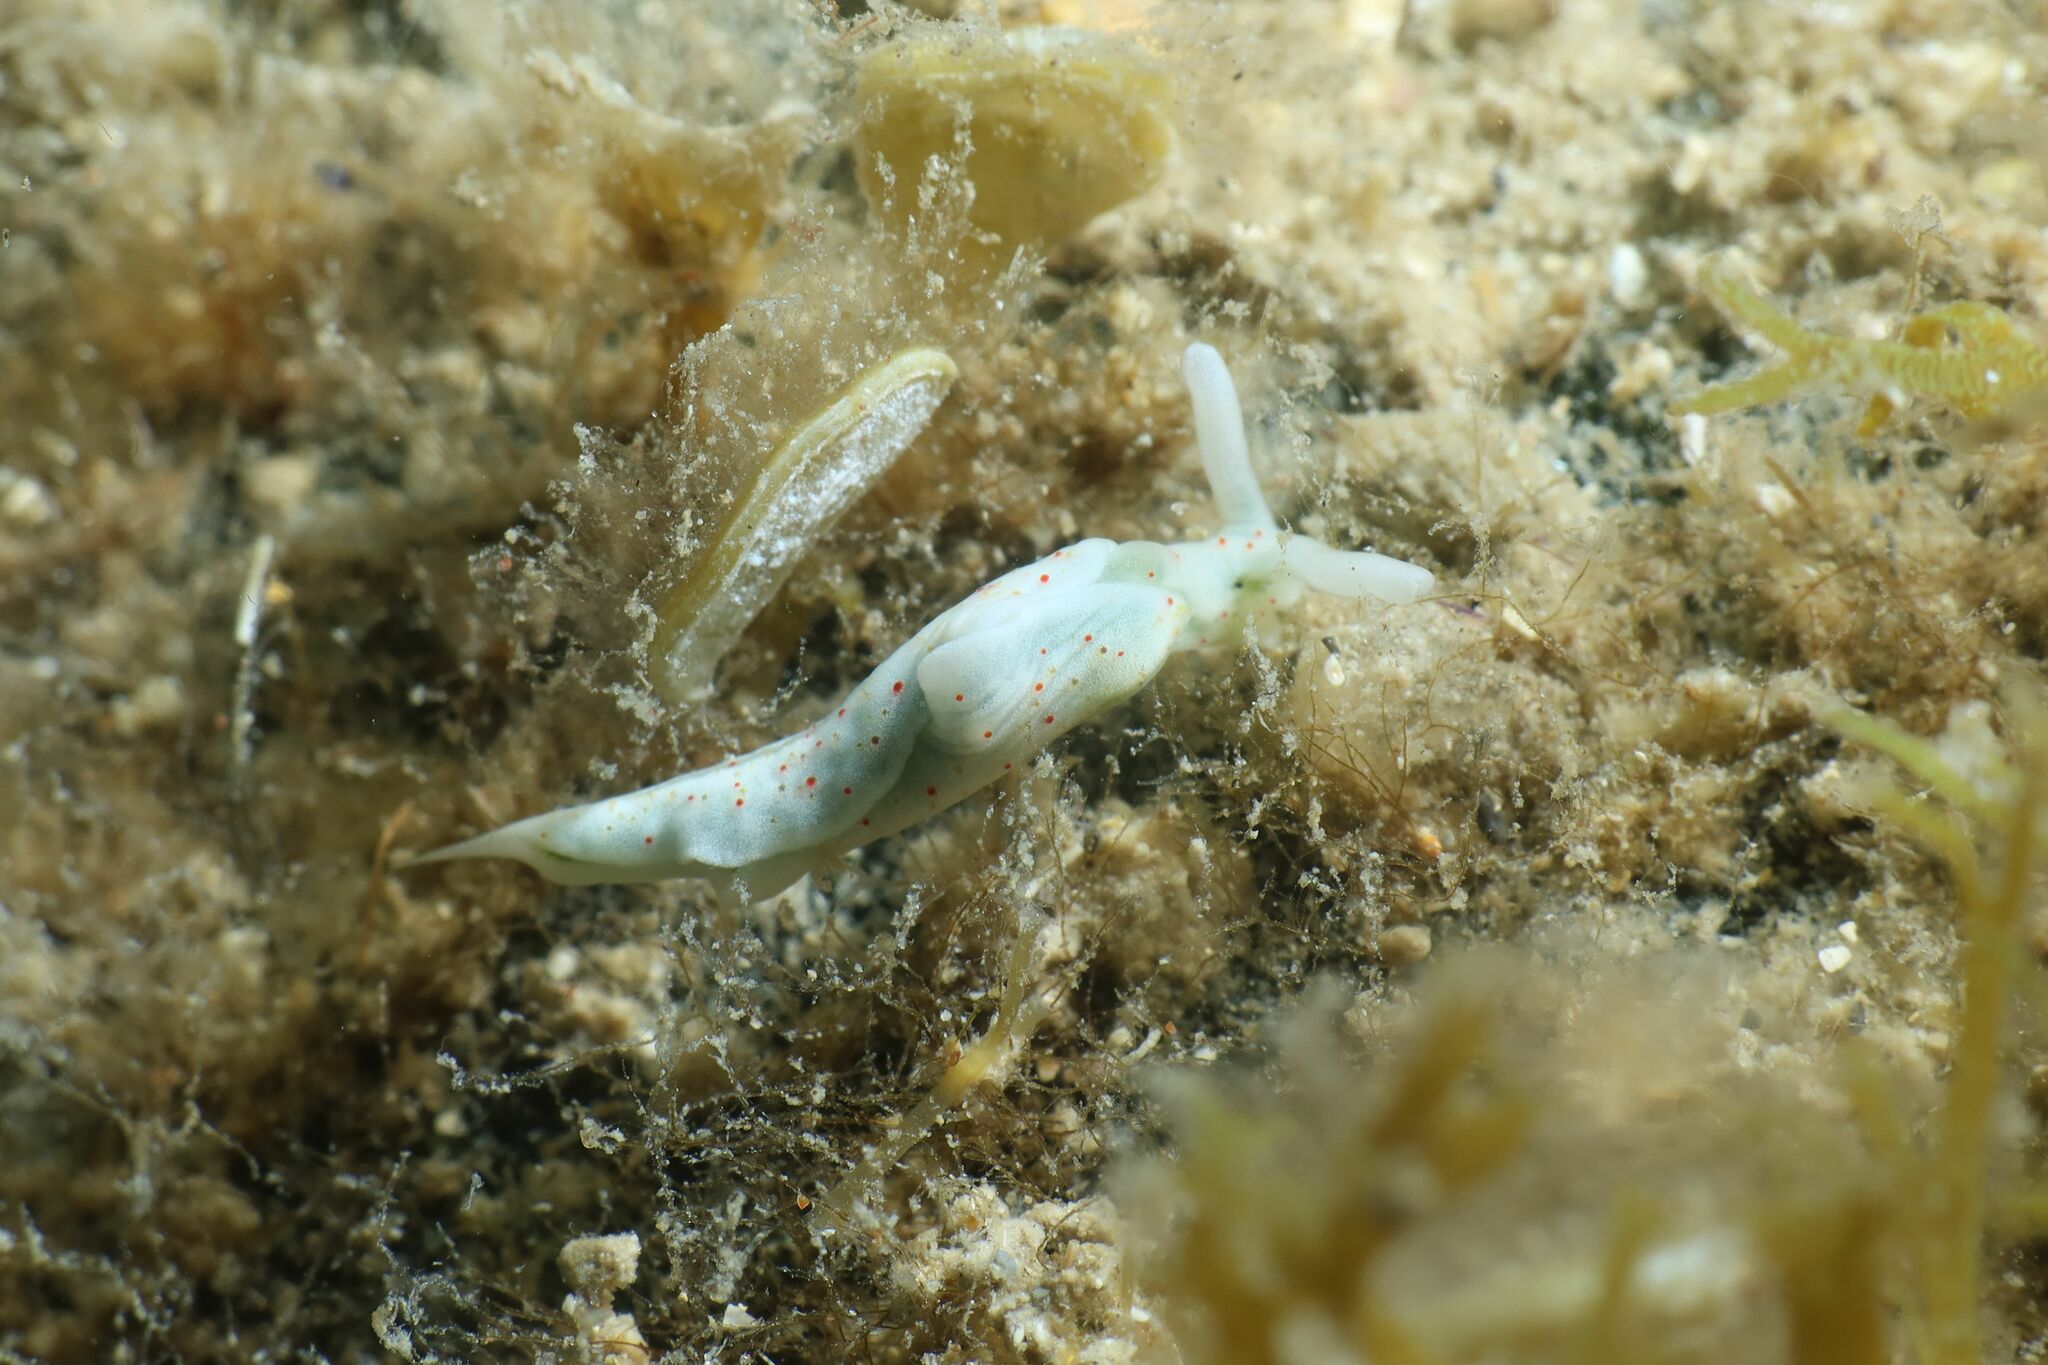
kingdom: Animalia
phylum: Mollusca
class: Gastropoda
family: Plakobranchidae
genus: Elysia
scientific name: Elysia timida
